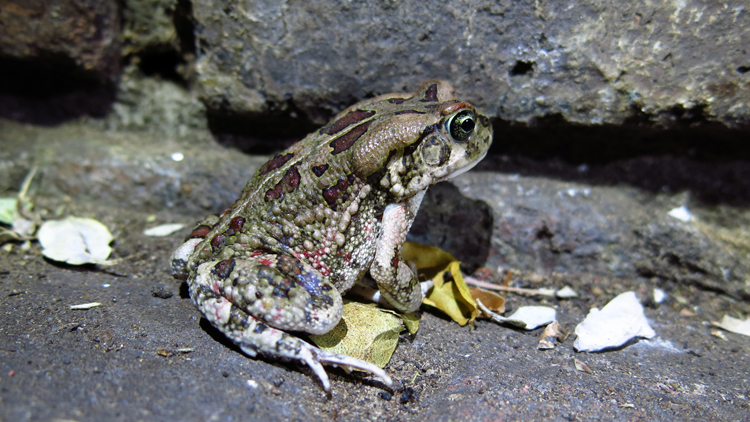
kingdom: Animalia
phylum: Chordata
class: Amphibia
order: Anura
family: Bufonidae
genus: Sclerophrys
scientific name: Sclerophrys garmani
